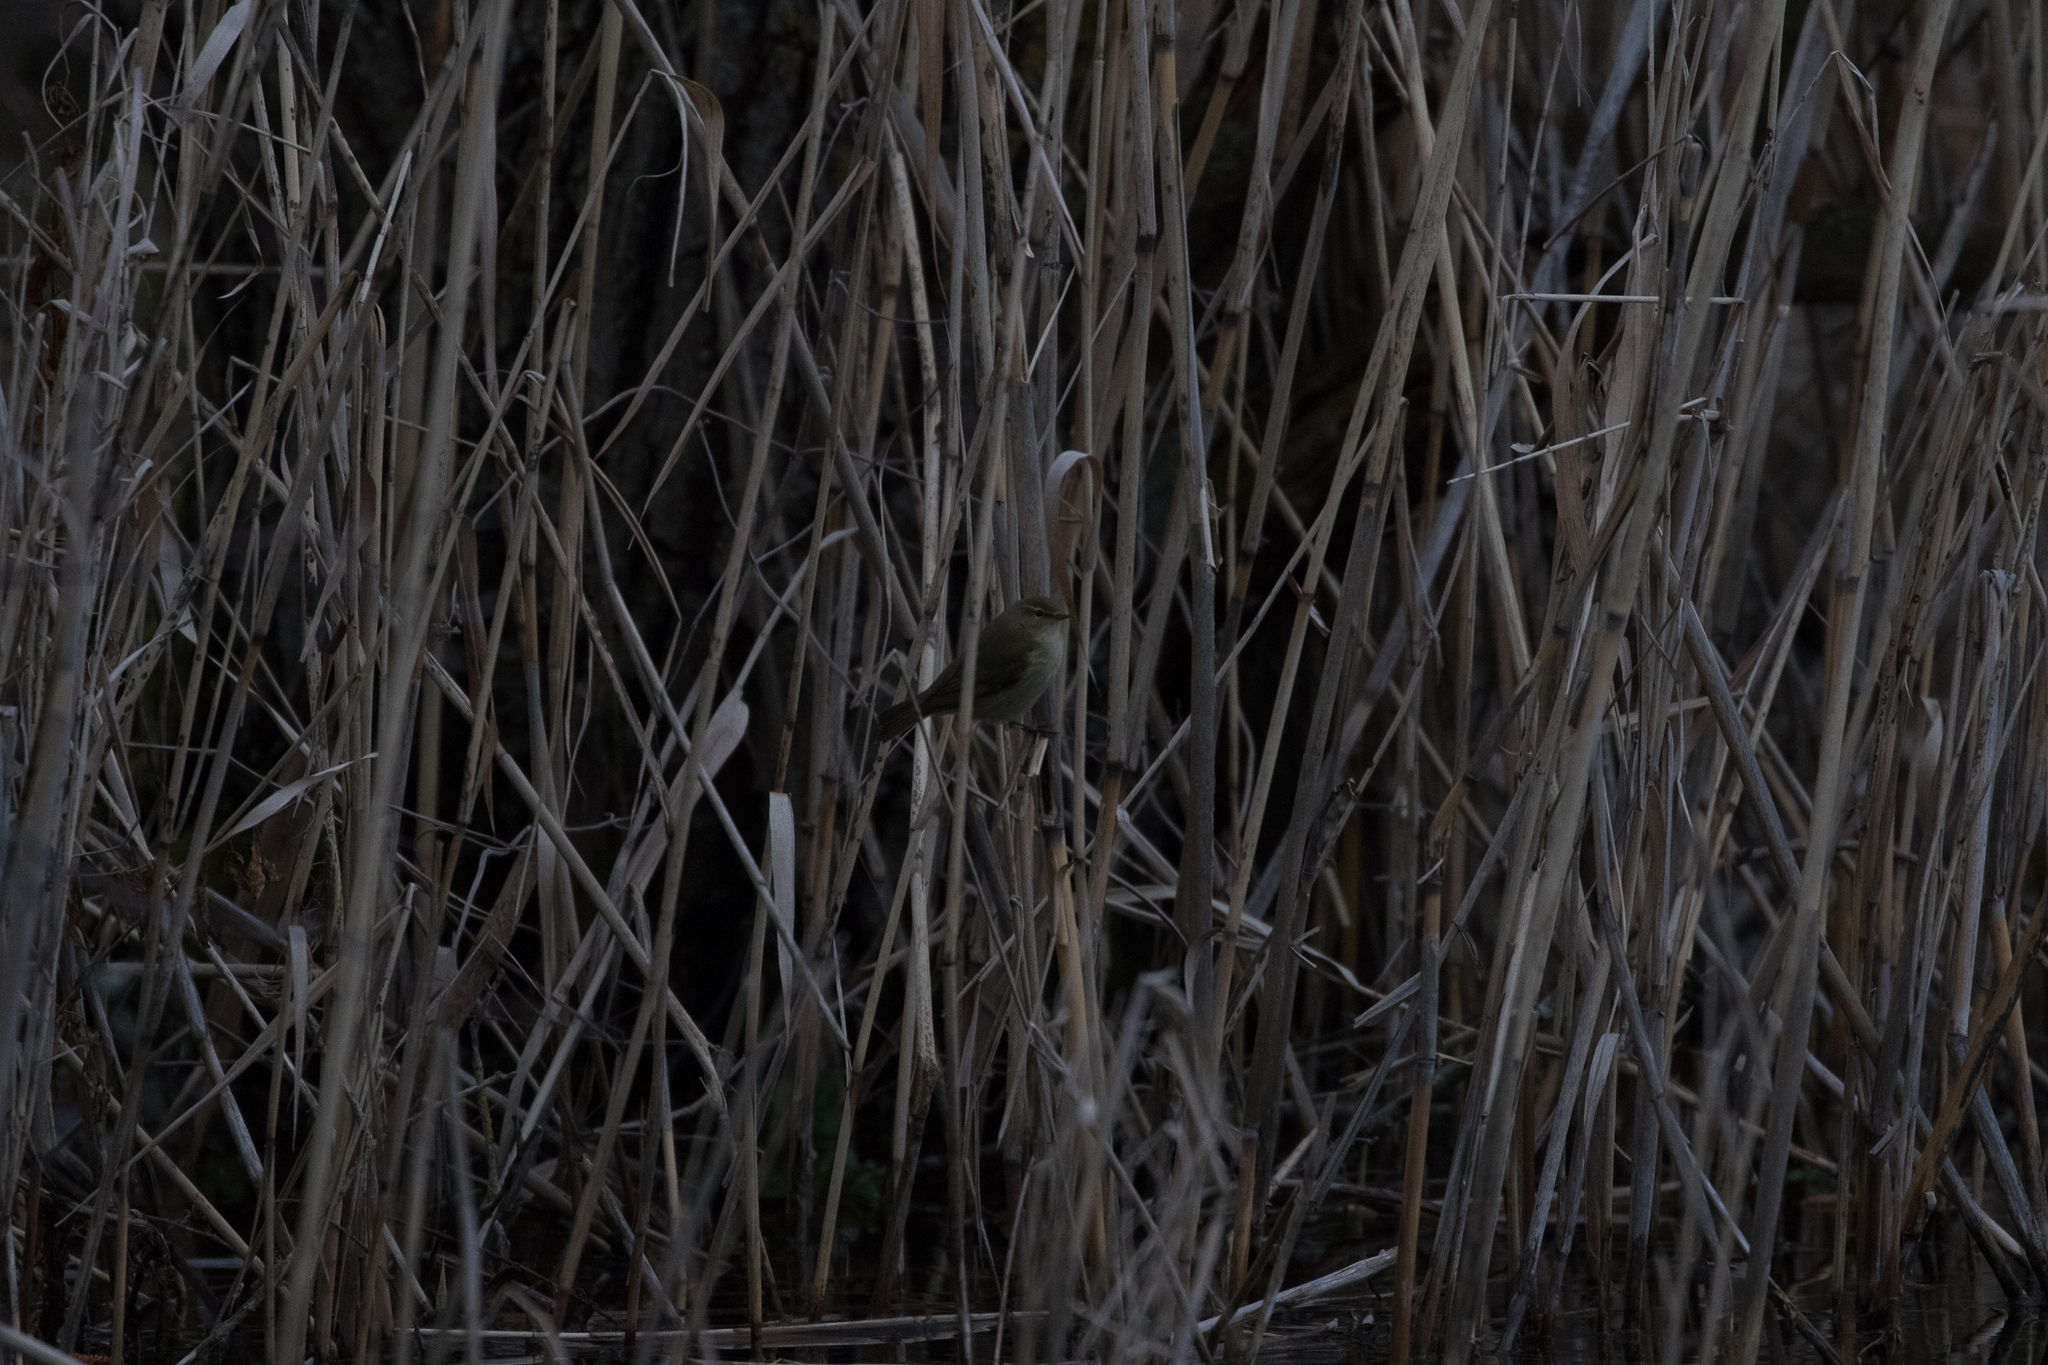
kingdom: Animalia
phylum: Chordata
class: Aves
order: Passeriformes
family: Phylloscopidae
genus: Phylloscopus
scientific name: Phylloscopus collybita
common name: Common chiffchaff
